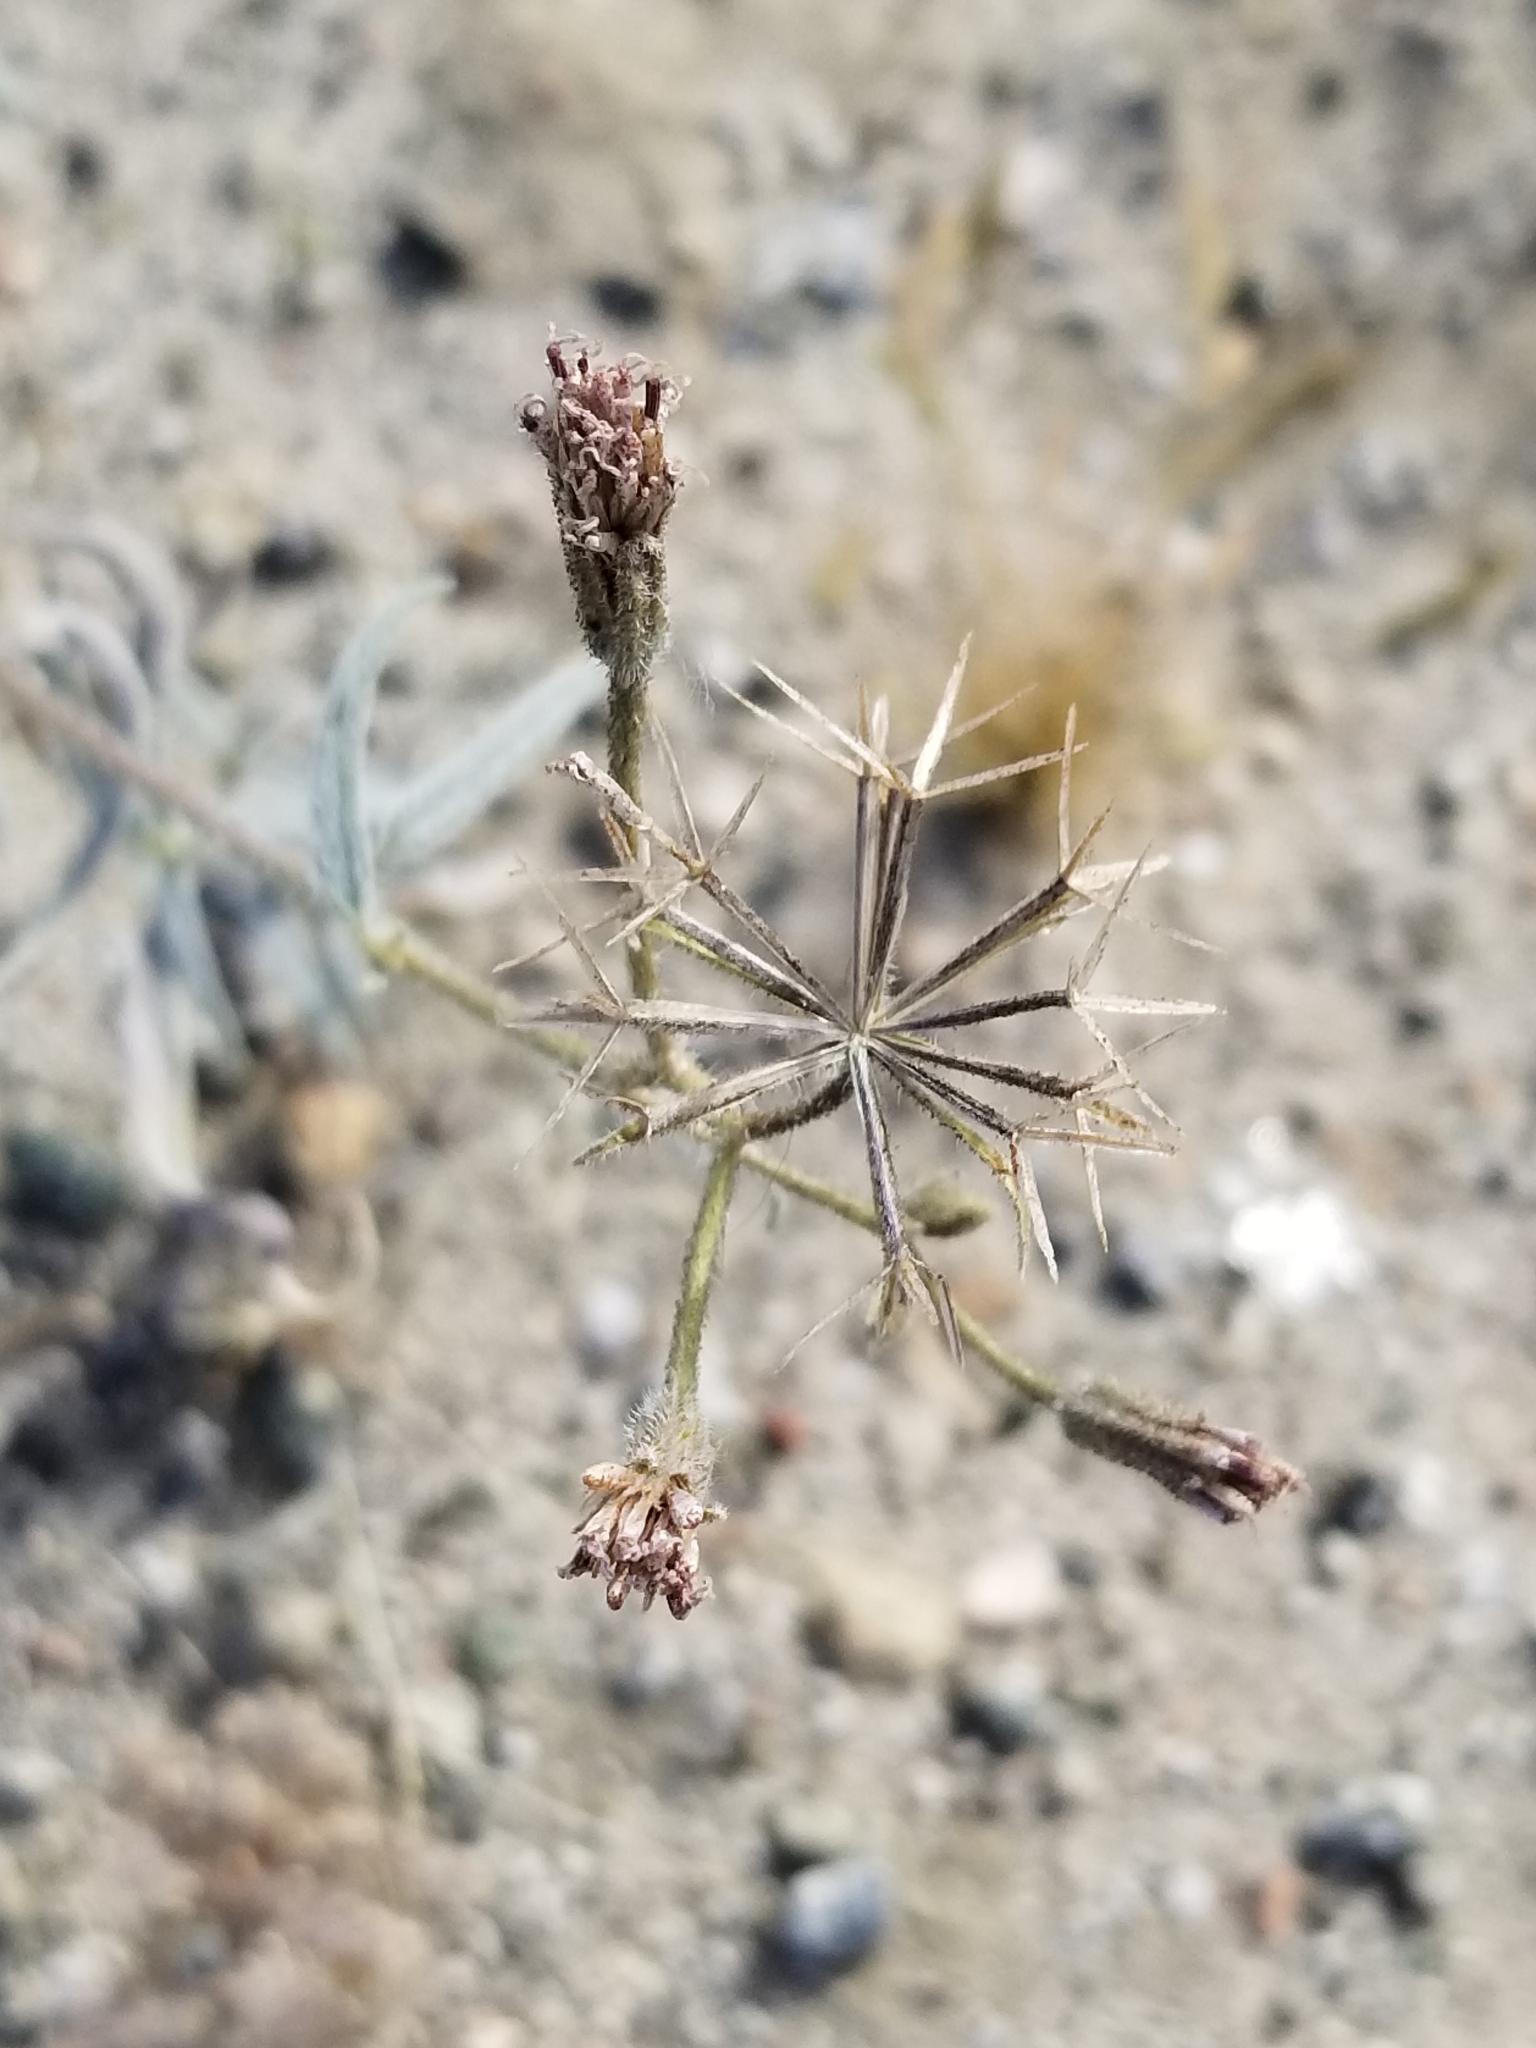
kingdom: Plantae
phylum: Tracheophyta
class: Magnoliopsida
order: Asterales
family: Asteraceae
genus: Palafoxia
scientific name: Palafoxia arida
